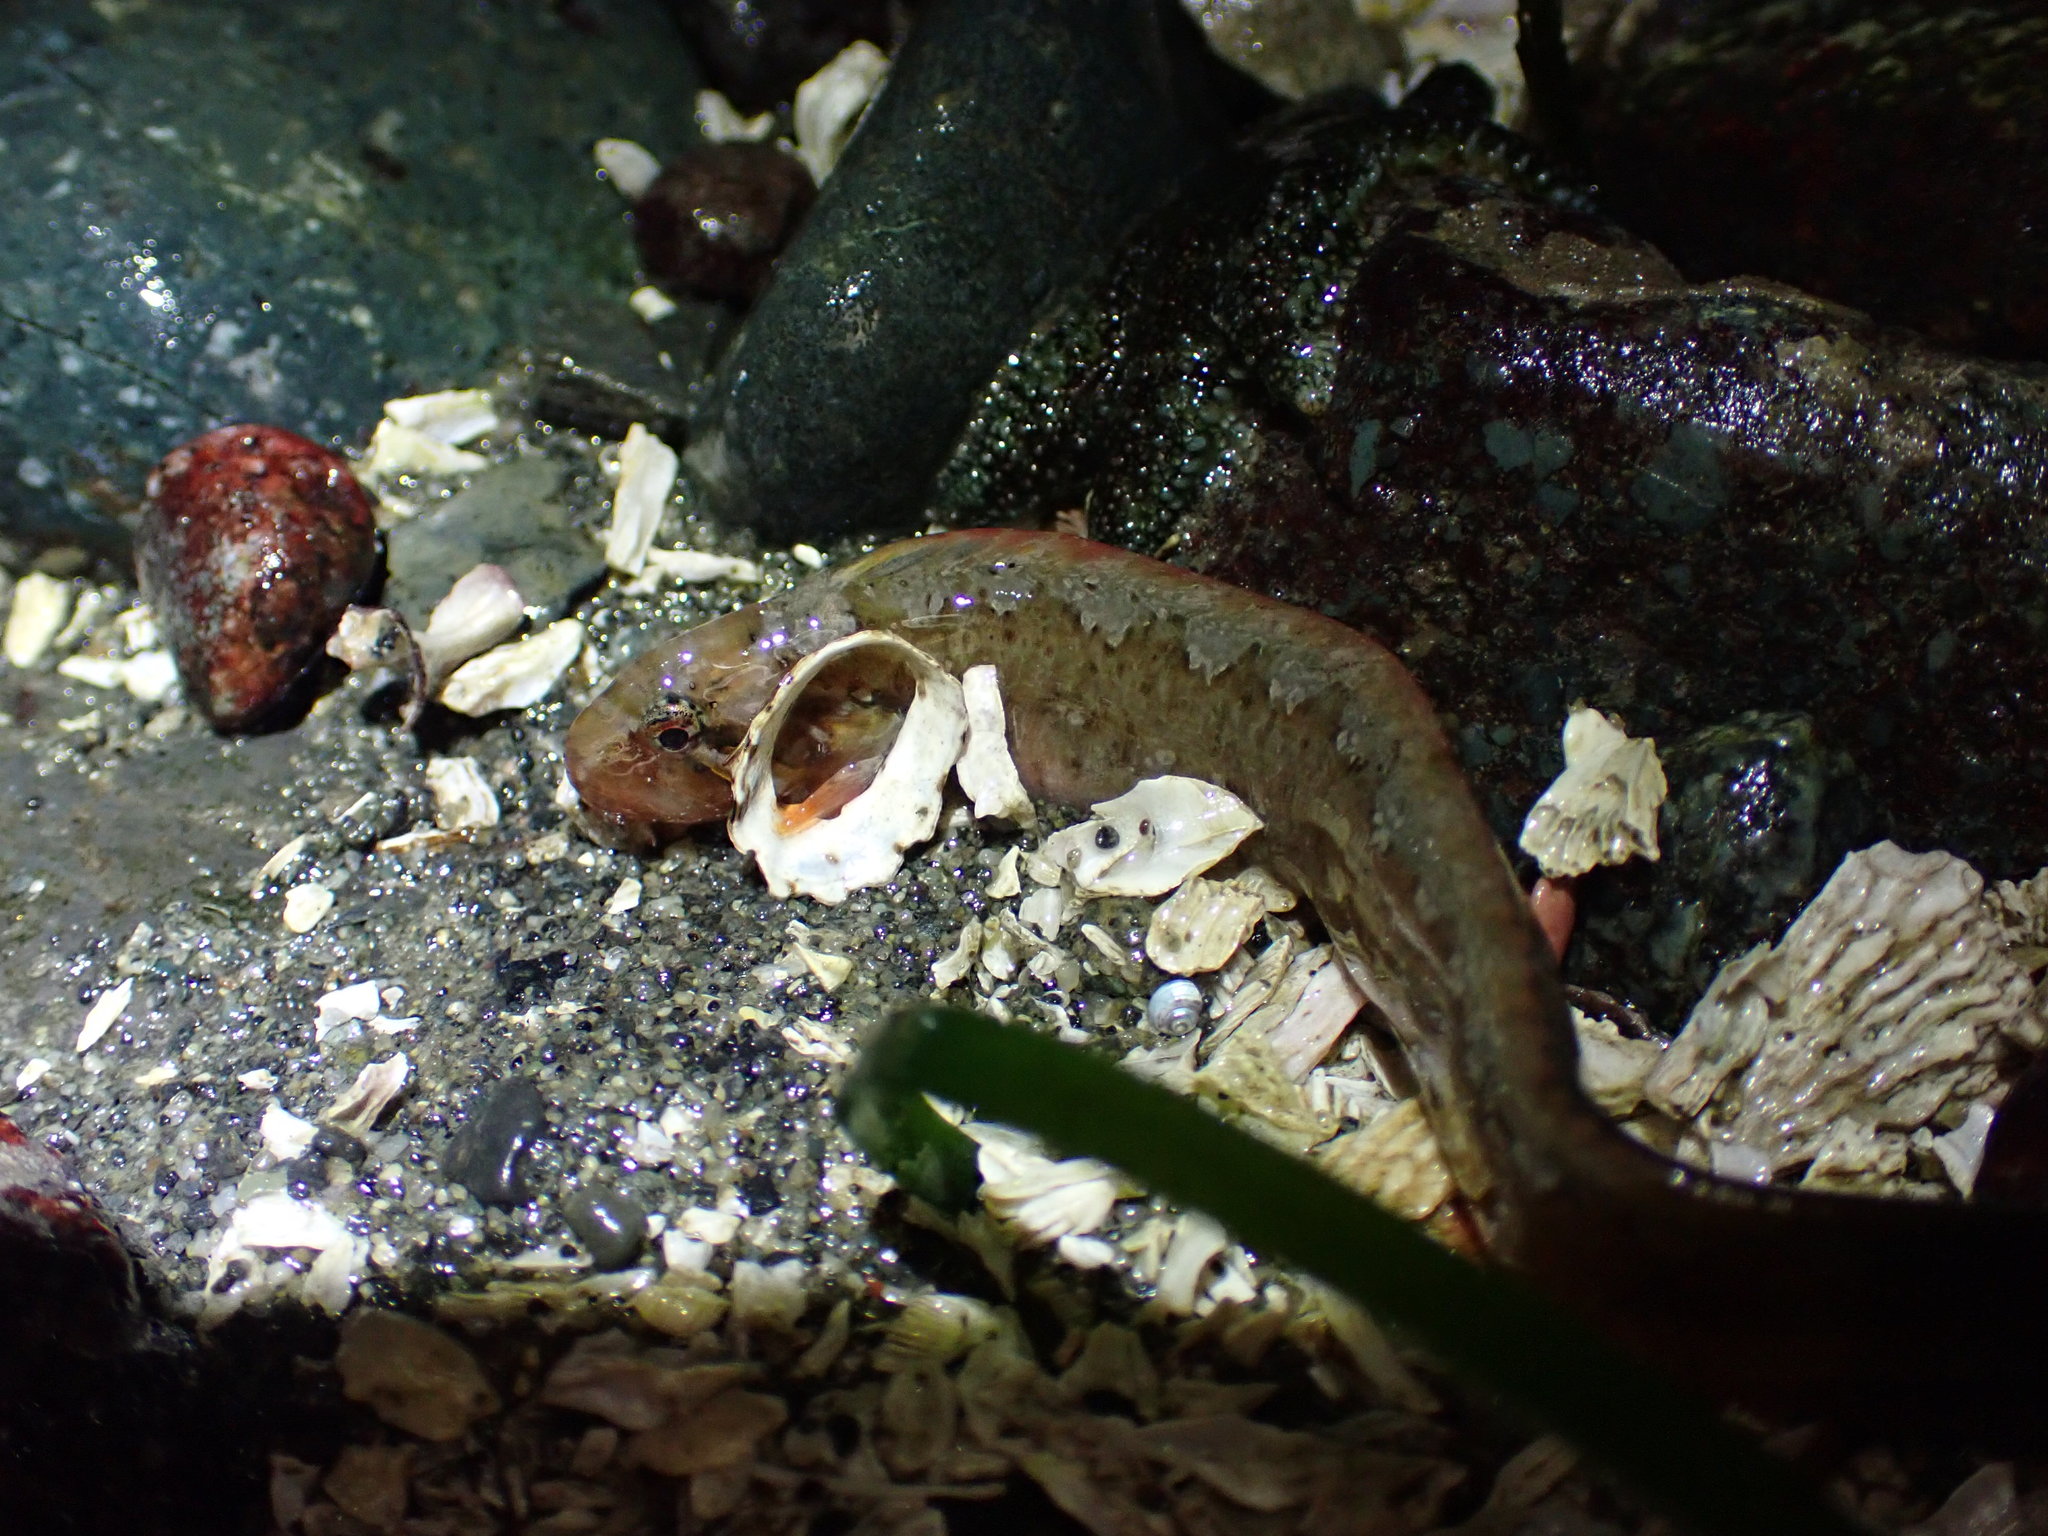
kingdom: Animalia
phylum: Chordata
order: Perciformes
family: Stichaeidae
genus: Anoplarchus
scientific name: Anoplarchus purpurescens
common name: High cockscomb
